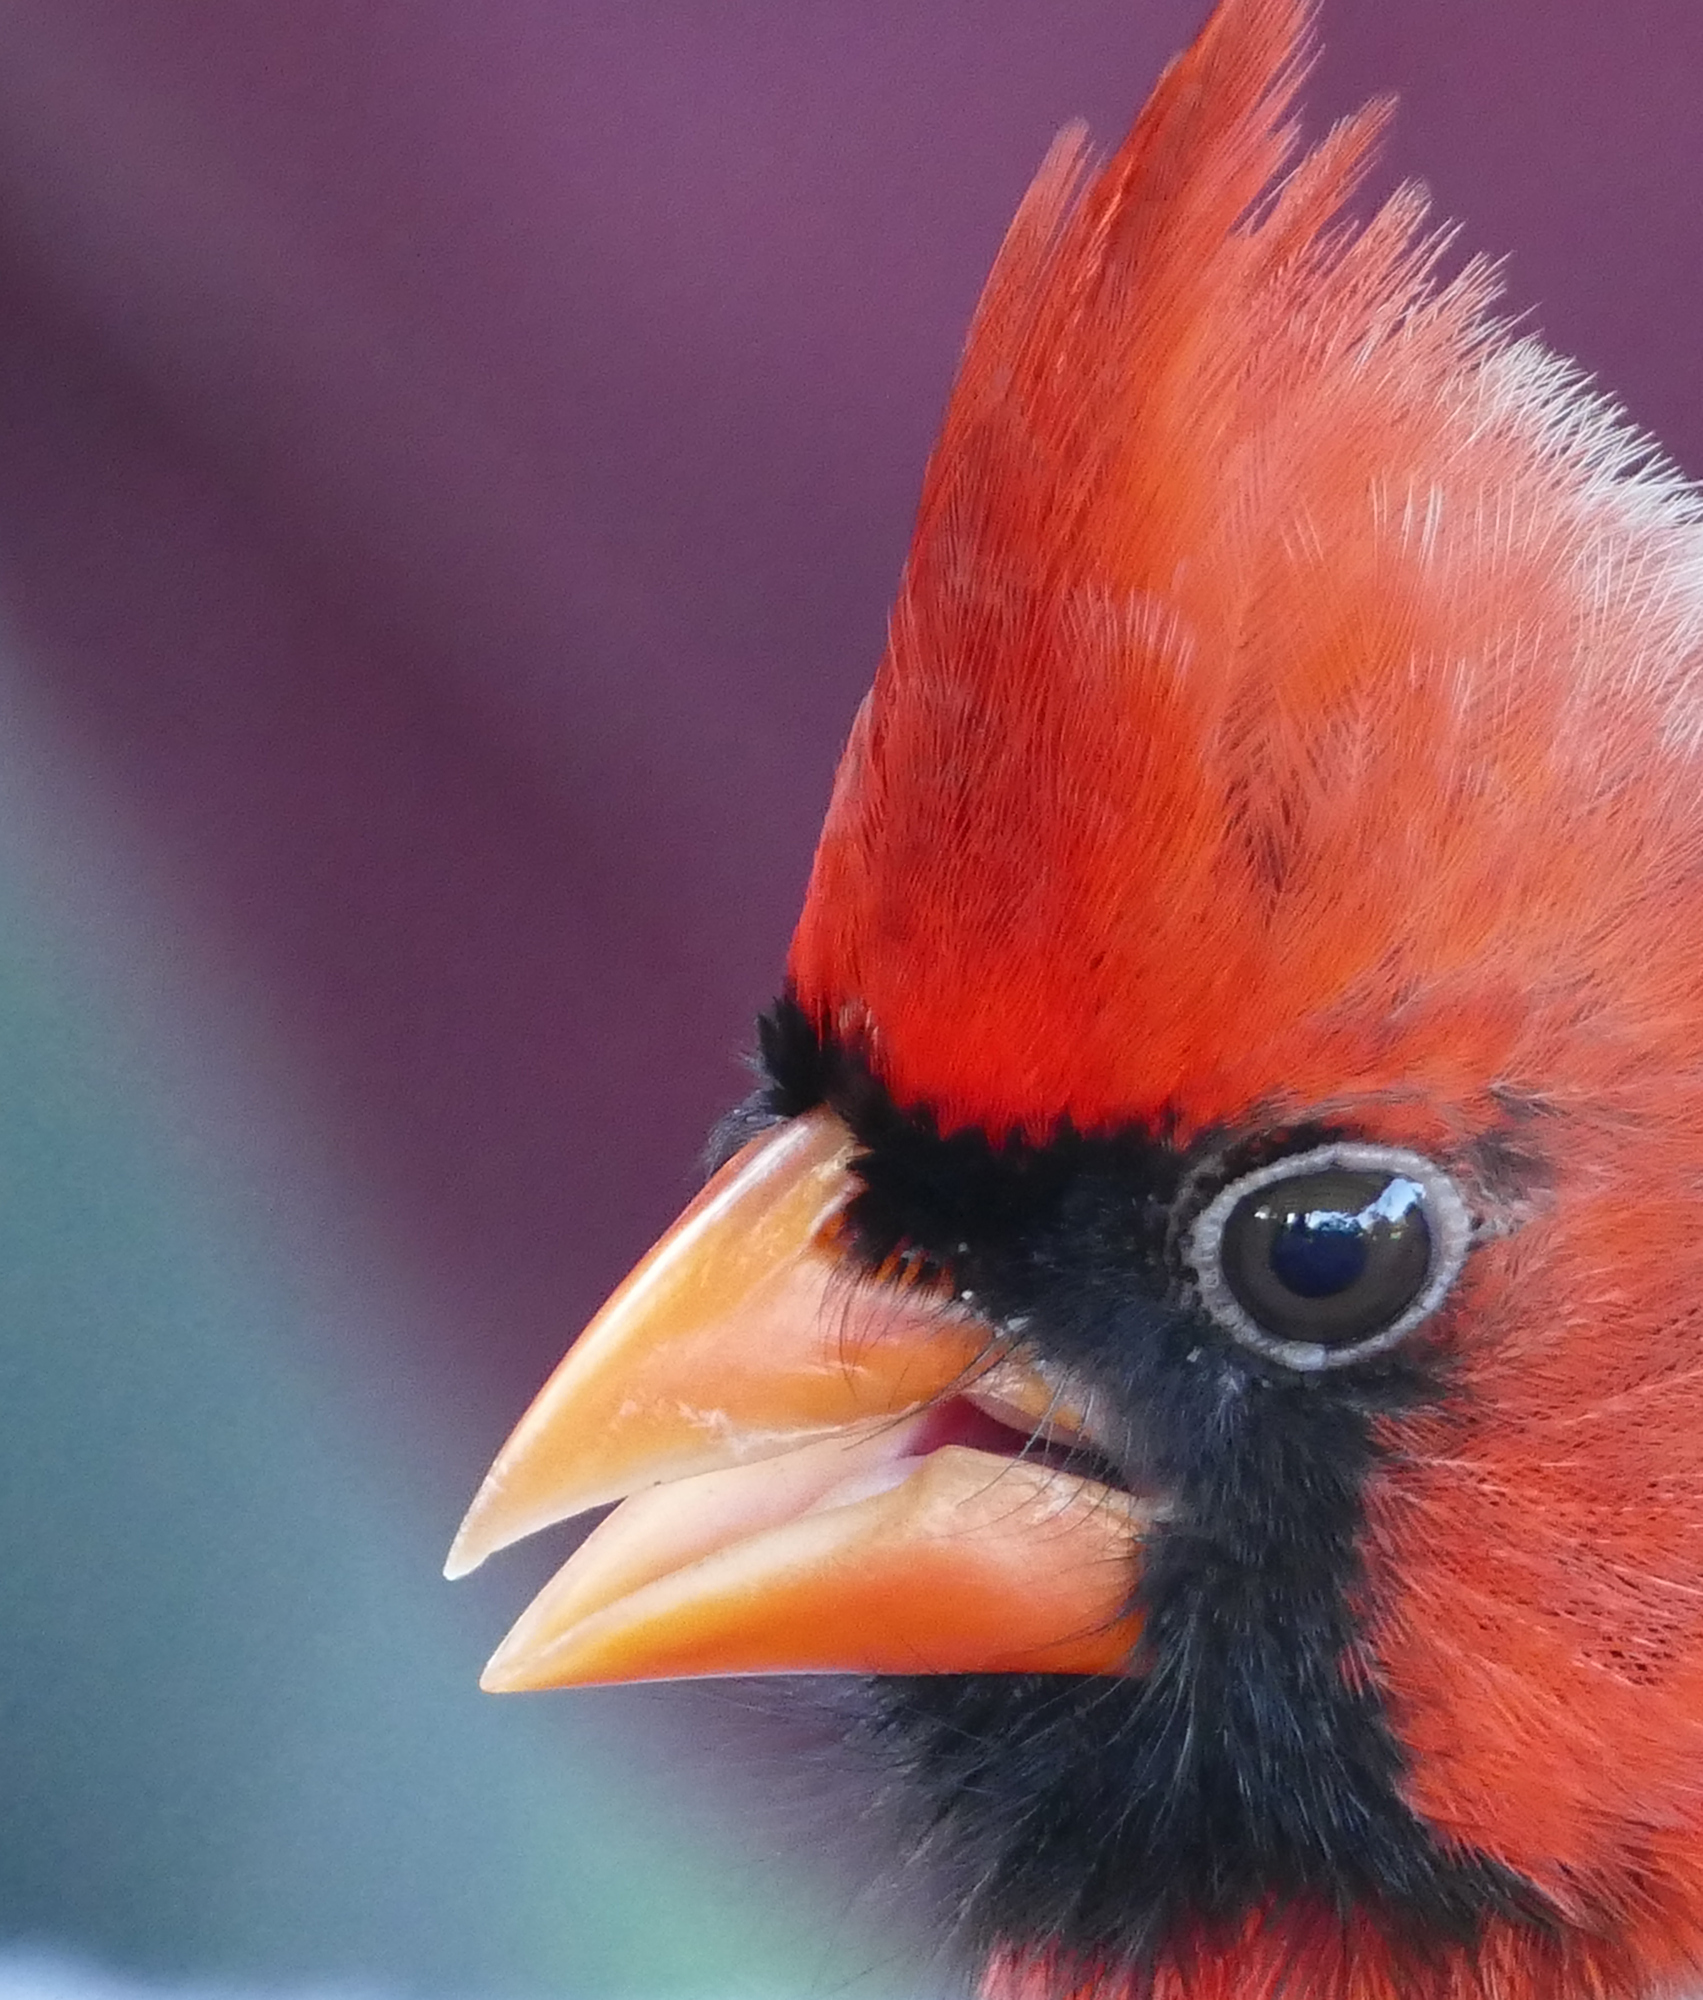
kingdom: Animalia
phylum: Chordata
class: Aves
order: Passeriformes
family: Cardinalidae
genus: Cardinalis
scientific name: Cardinalis cardinalis
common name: Northern cardinal
